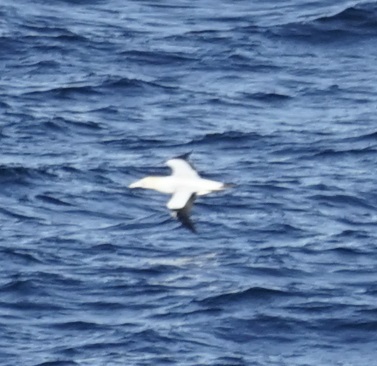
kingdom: Animalia
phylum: Chordata
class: Aves
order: Suliformes
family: Sulidae
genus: Morus
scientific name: Morus serrator
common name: Australasian gannet
